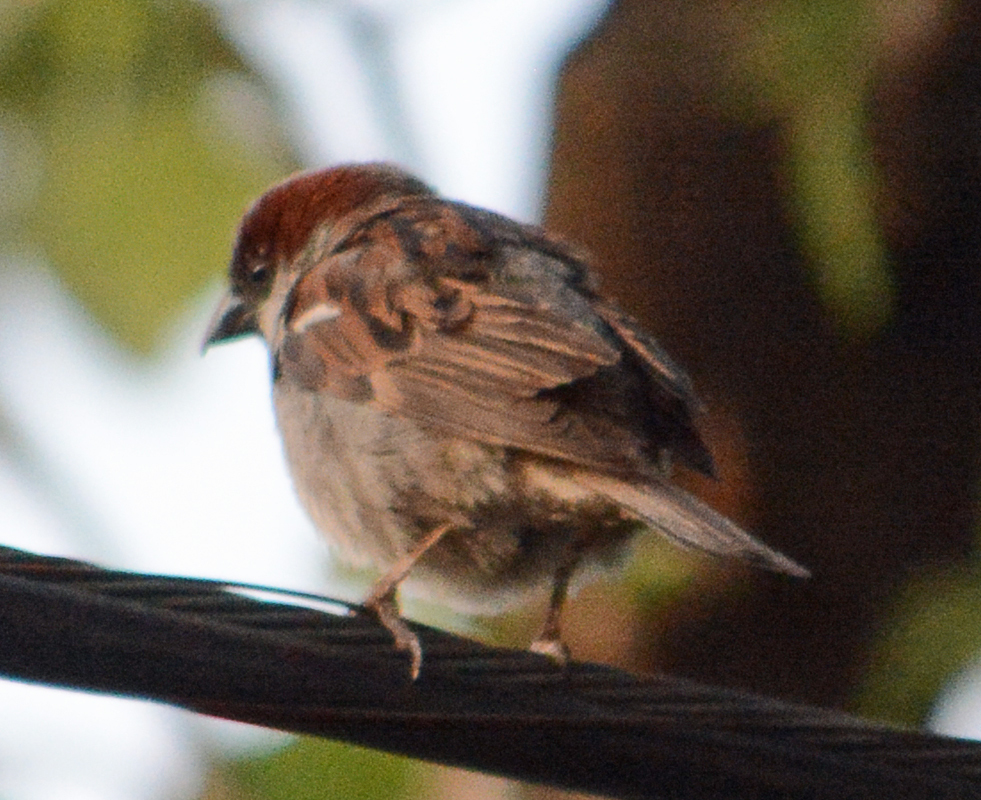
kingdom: Animalia
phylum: Chordata
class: Aves
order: Passeriformes
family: Passeridae
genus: Passer
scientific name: Passer domesticus
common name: House sparrow
